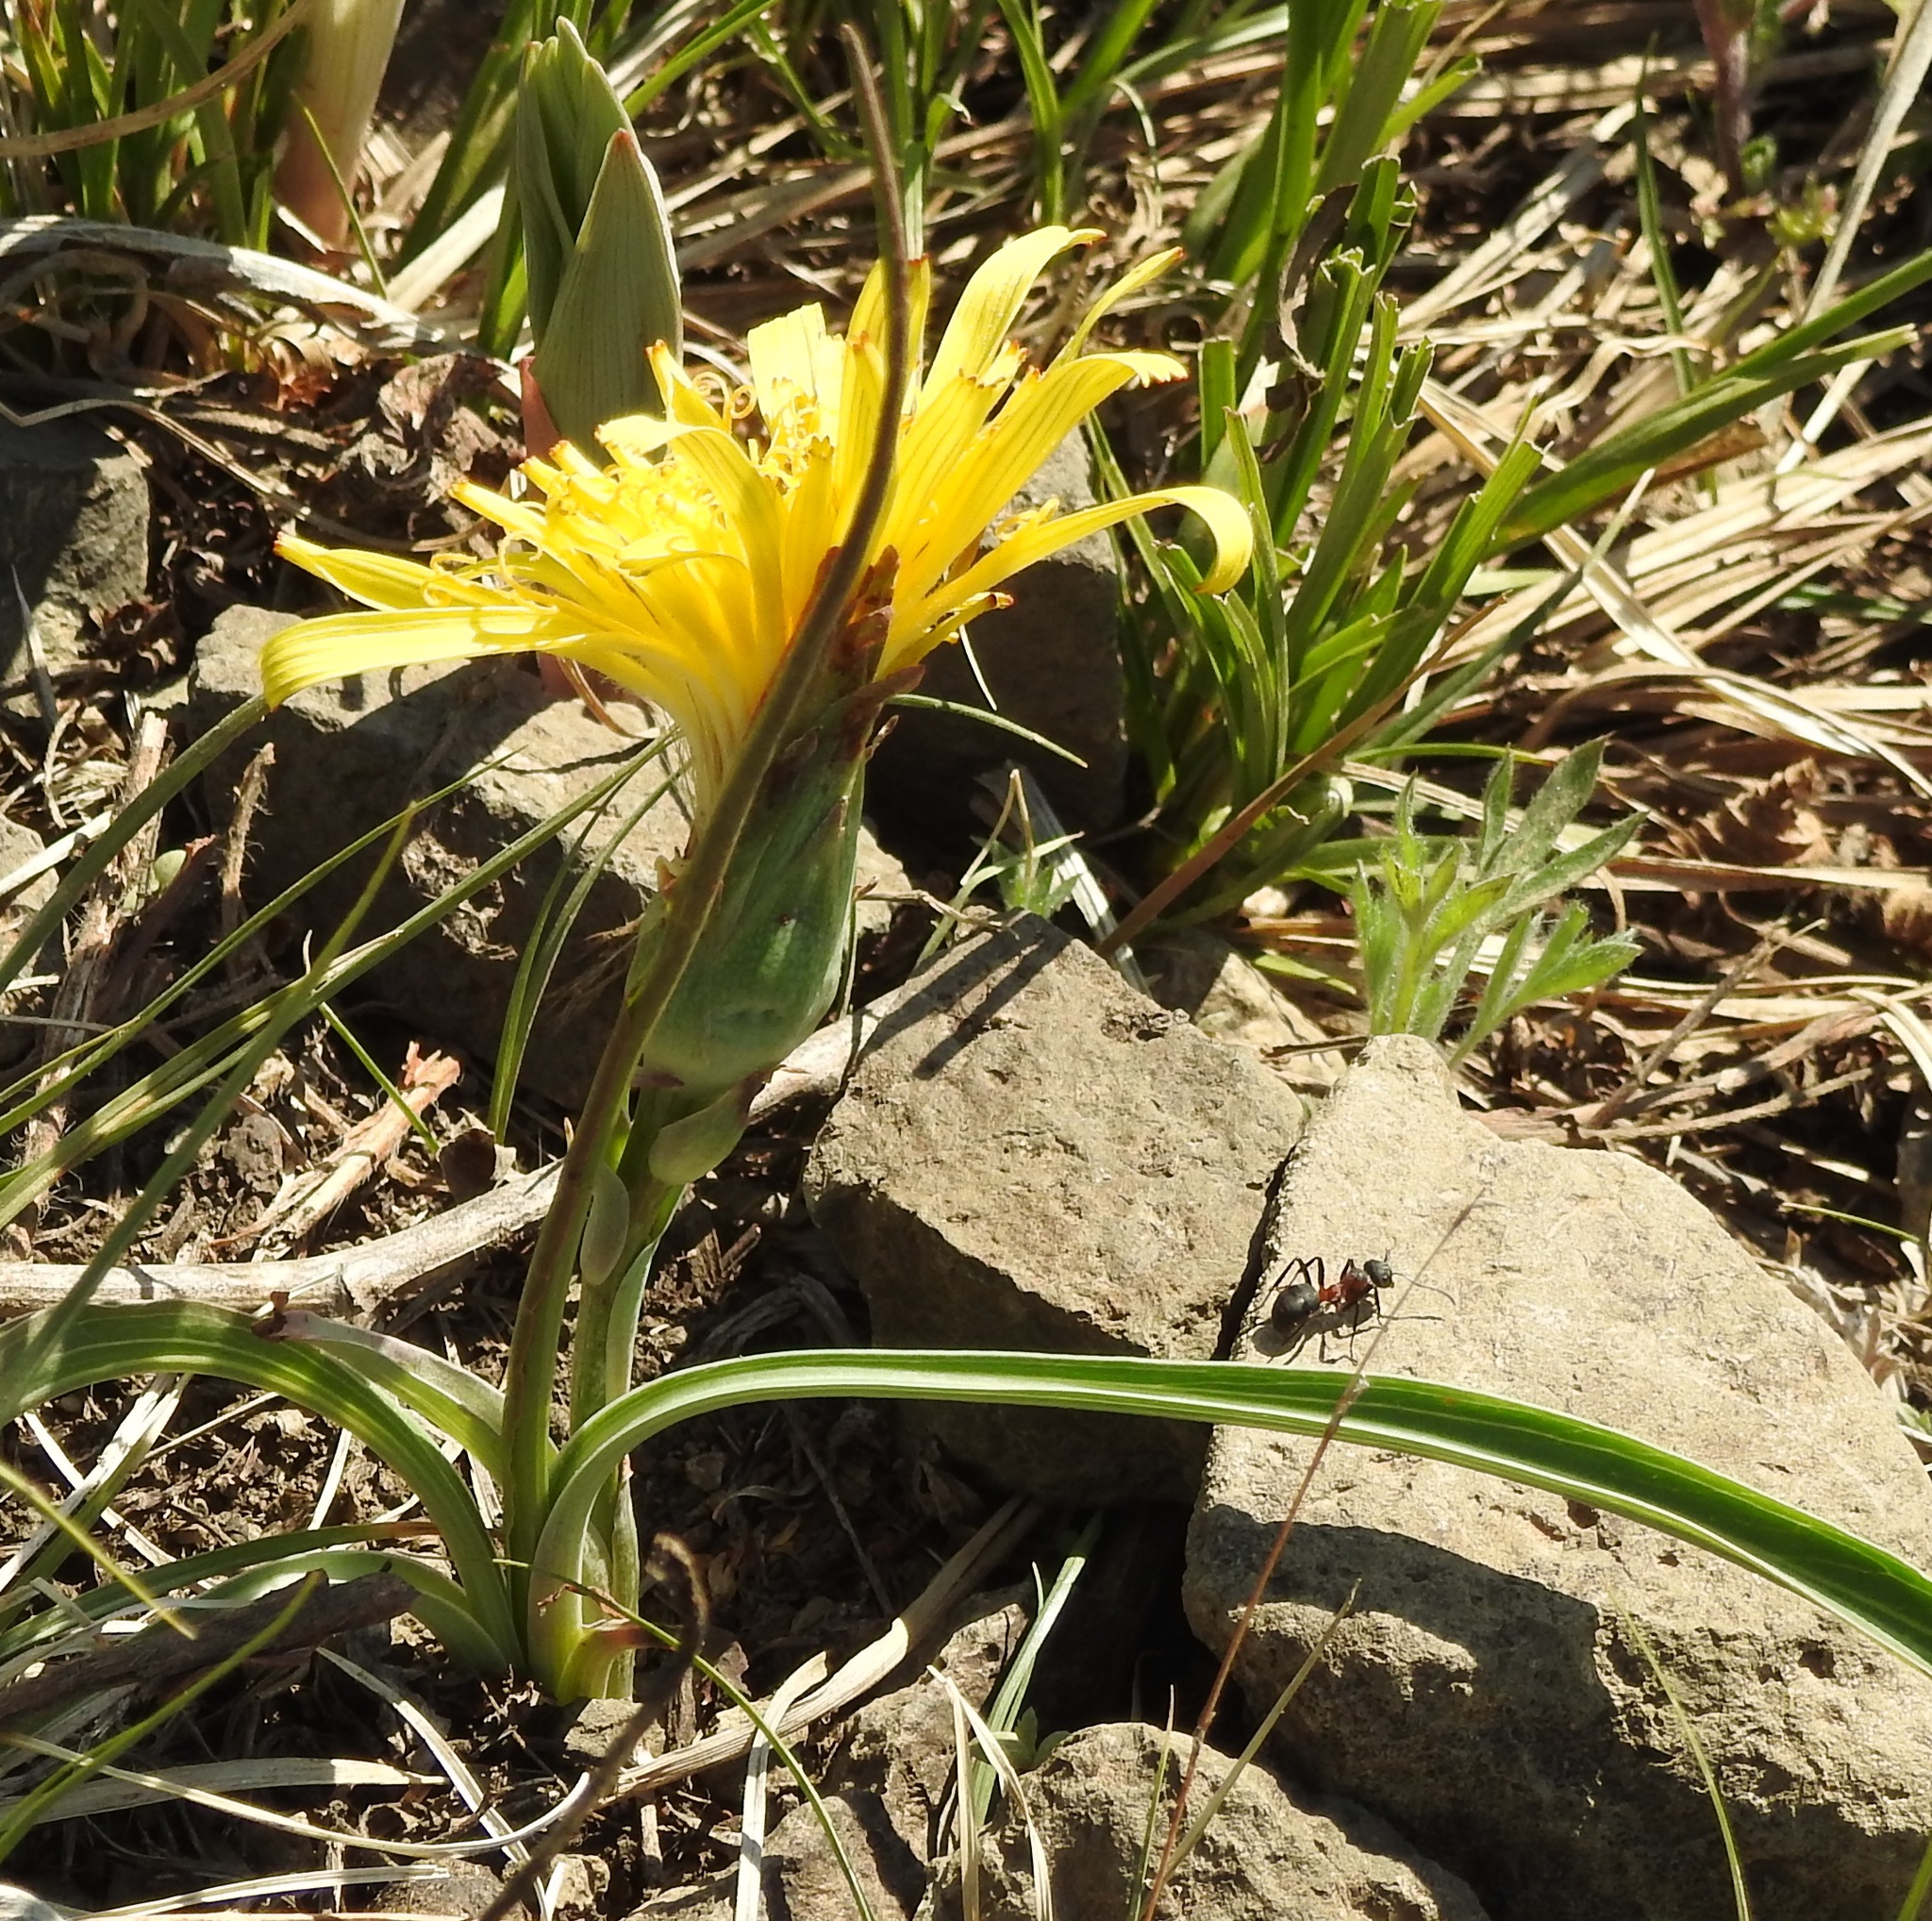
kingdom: Plantae
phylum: Tracheophyta
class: Magnoliopsida
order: Asterales
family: Asteraceae
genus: Takhtajaniantha
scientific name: Takhtajaniantha austriaca
